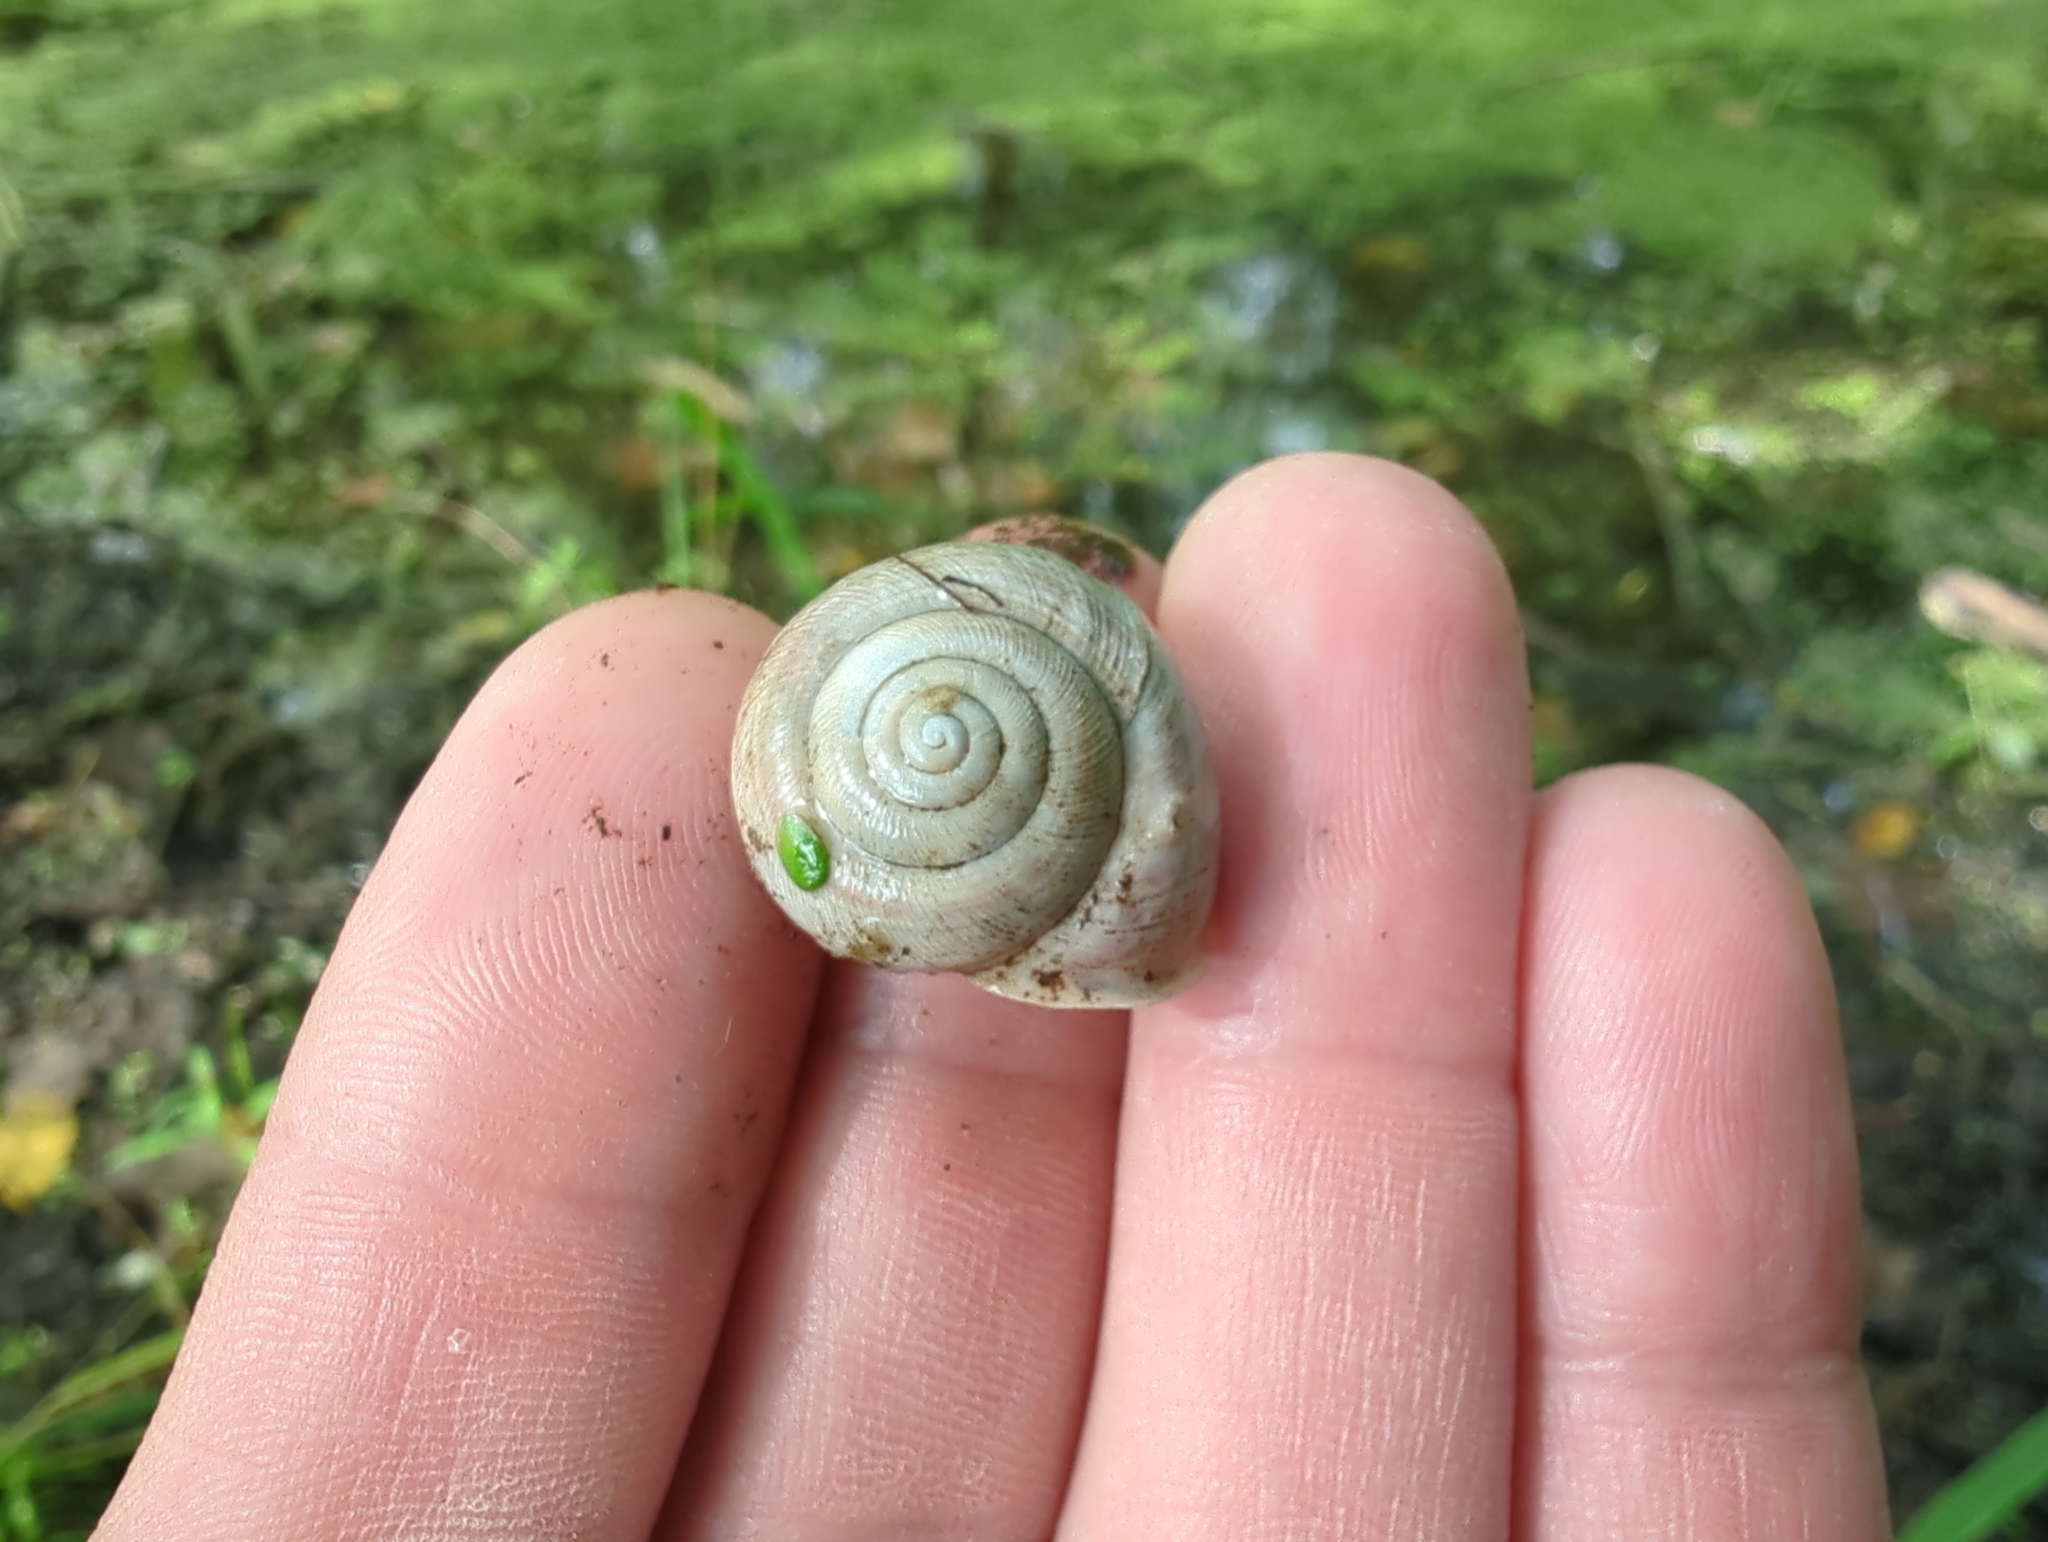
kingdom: Animalia
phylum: Mollusca
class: Gastropoda
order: Stylommatophora
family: Polygyridae
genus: Webbhelix
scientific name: Webbhelix multilineata
